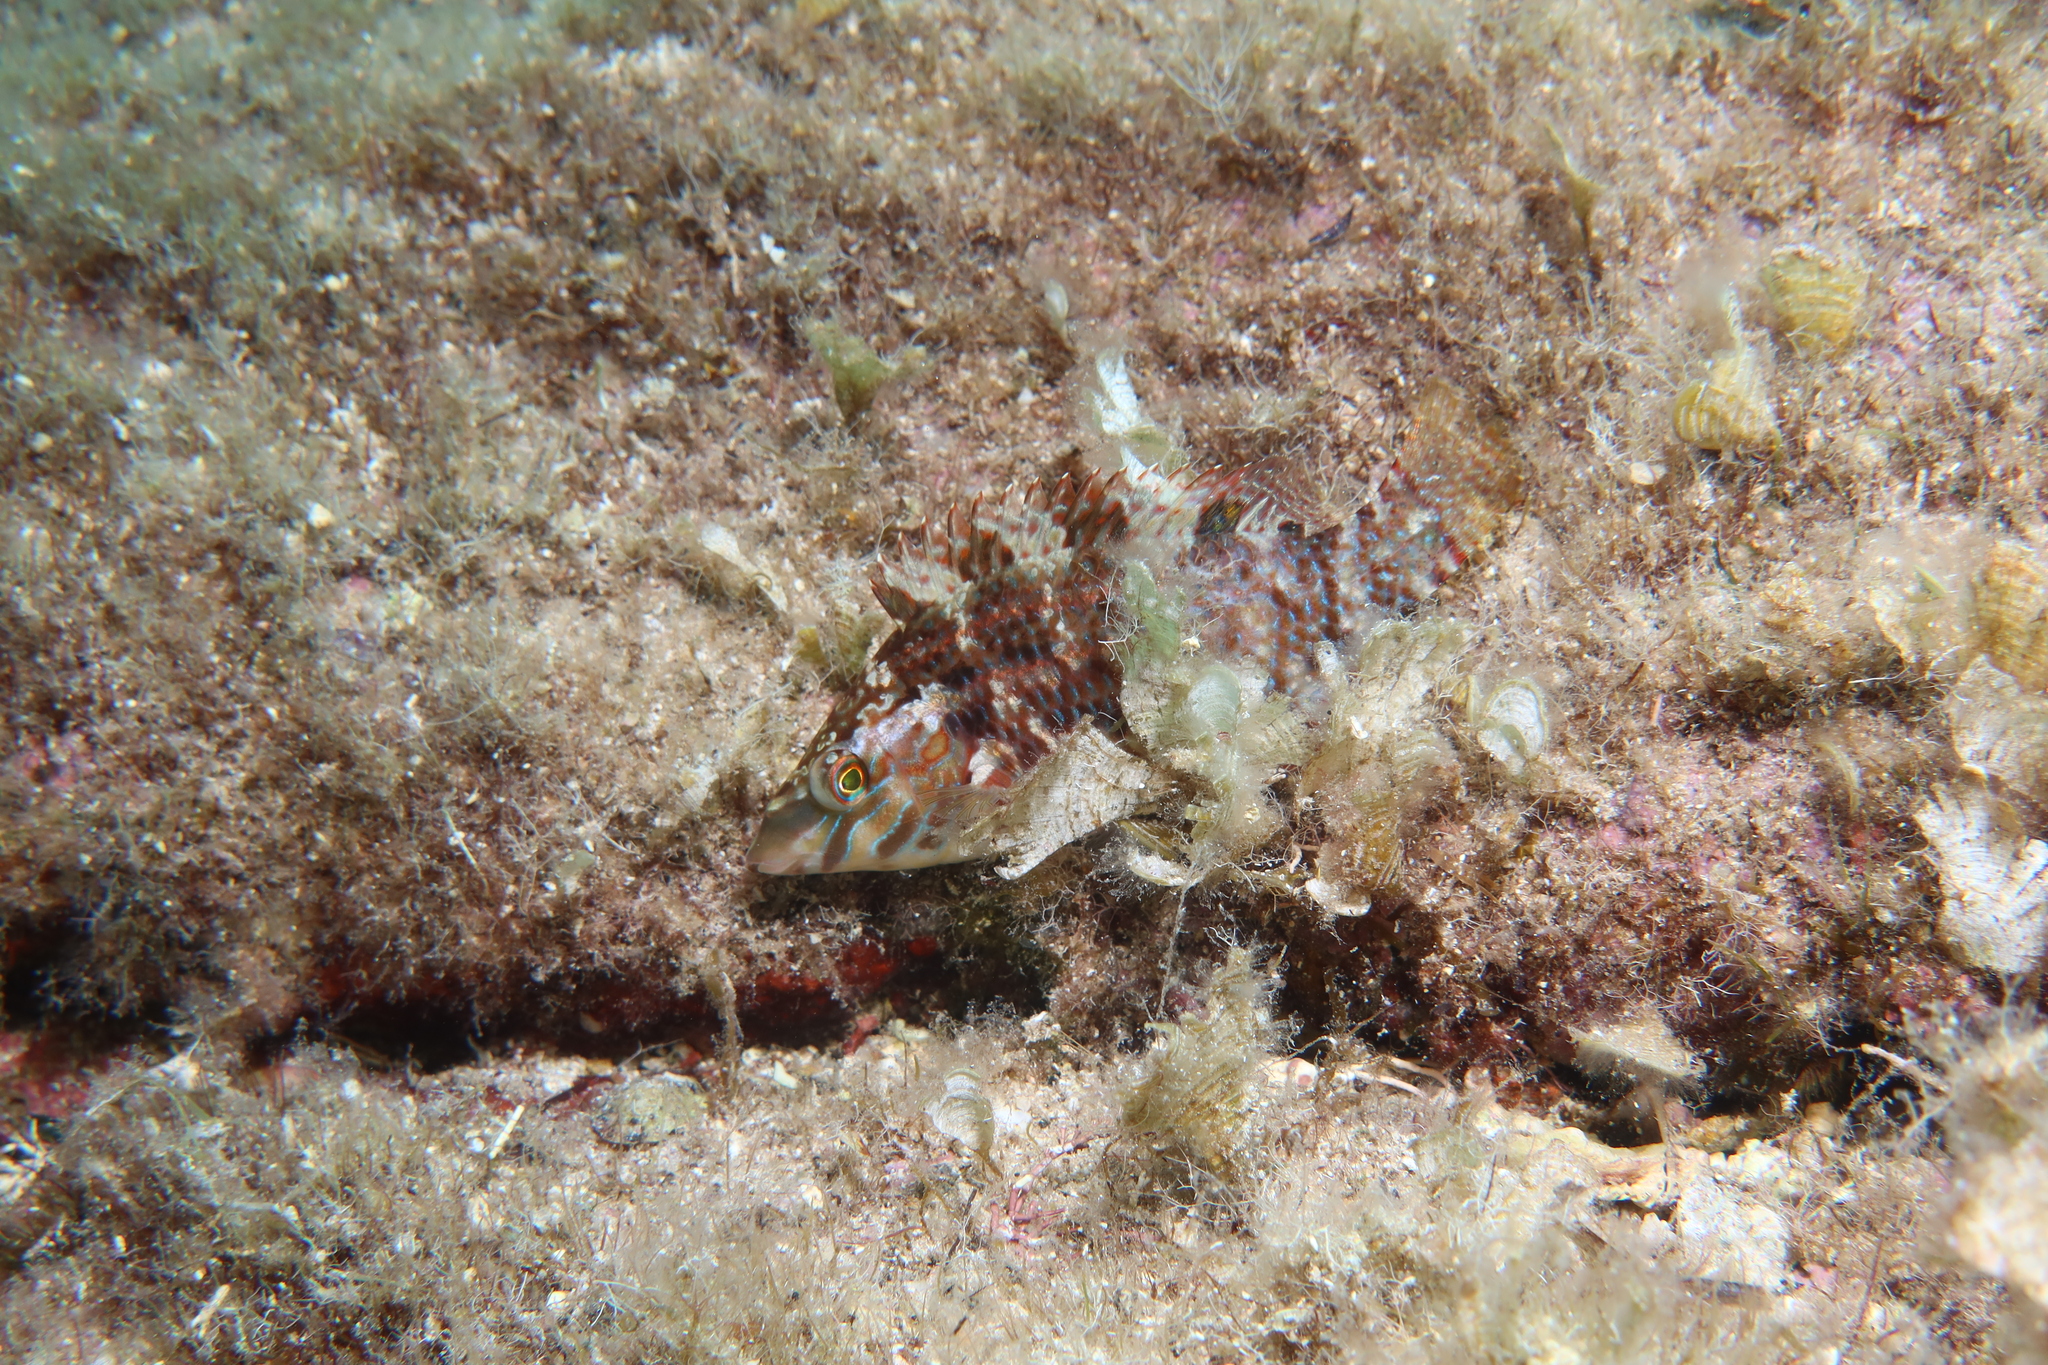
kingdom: Animalia
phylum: Chordata
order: Perciformes
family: Labridae
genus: Symphodus
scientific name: Symphodus roissali
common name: Five-spotted wrasse
